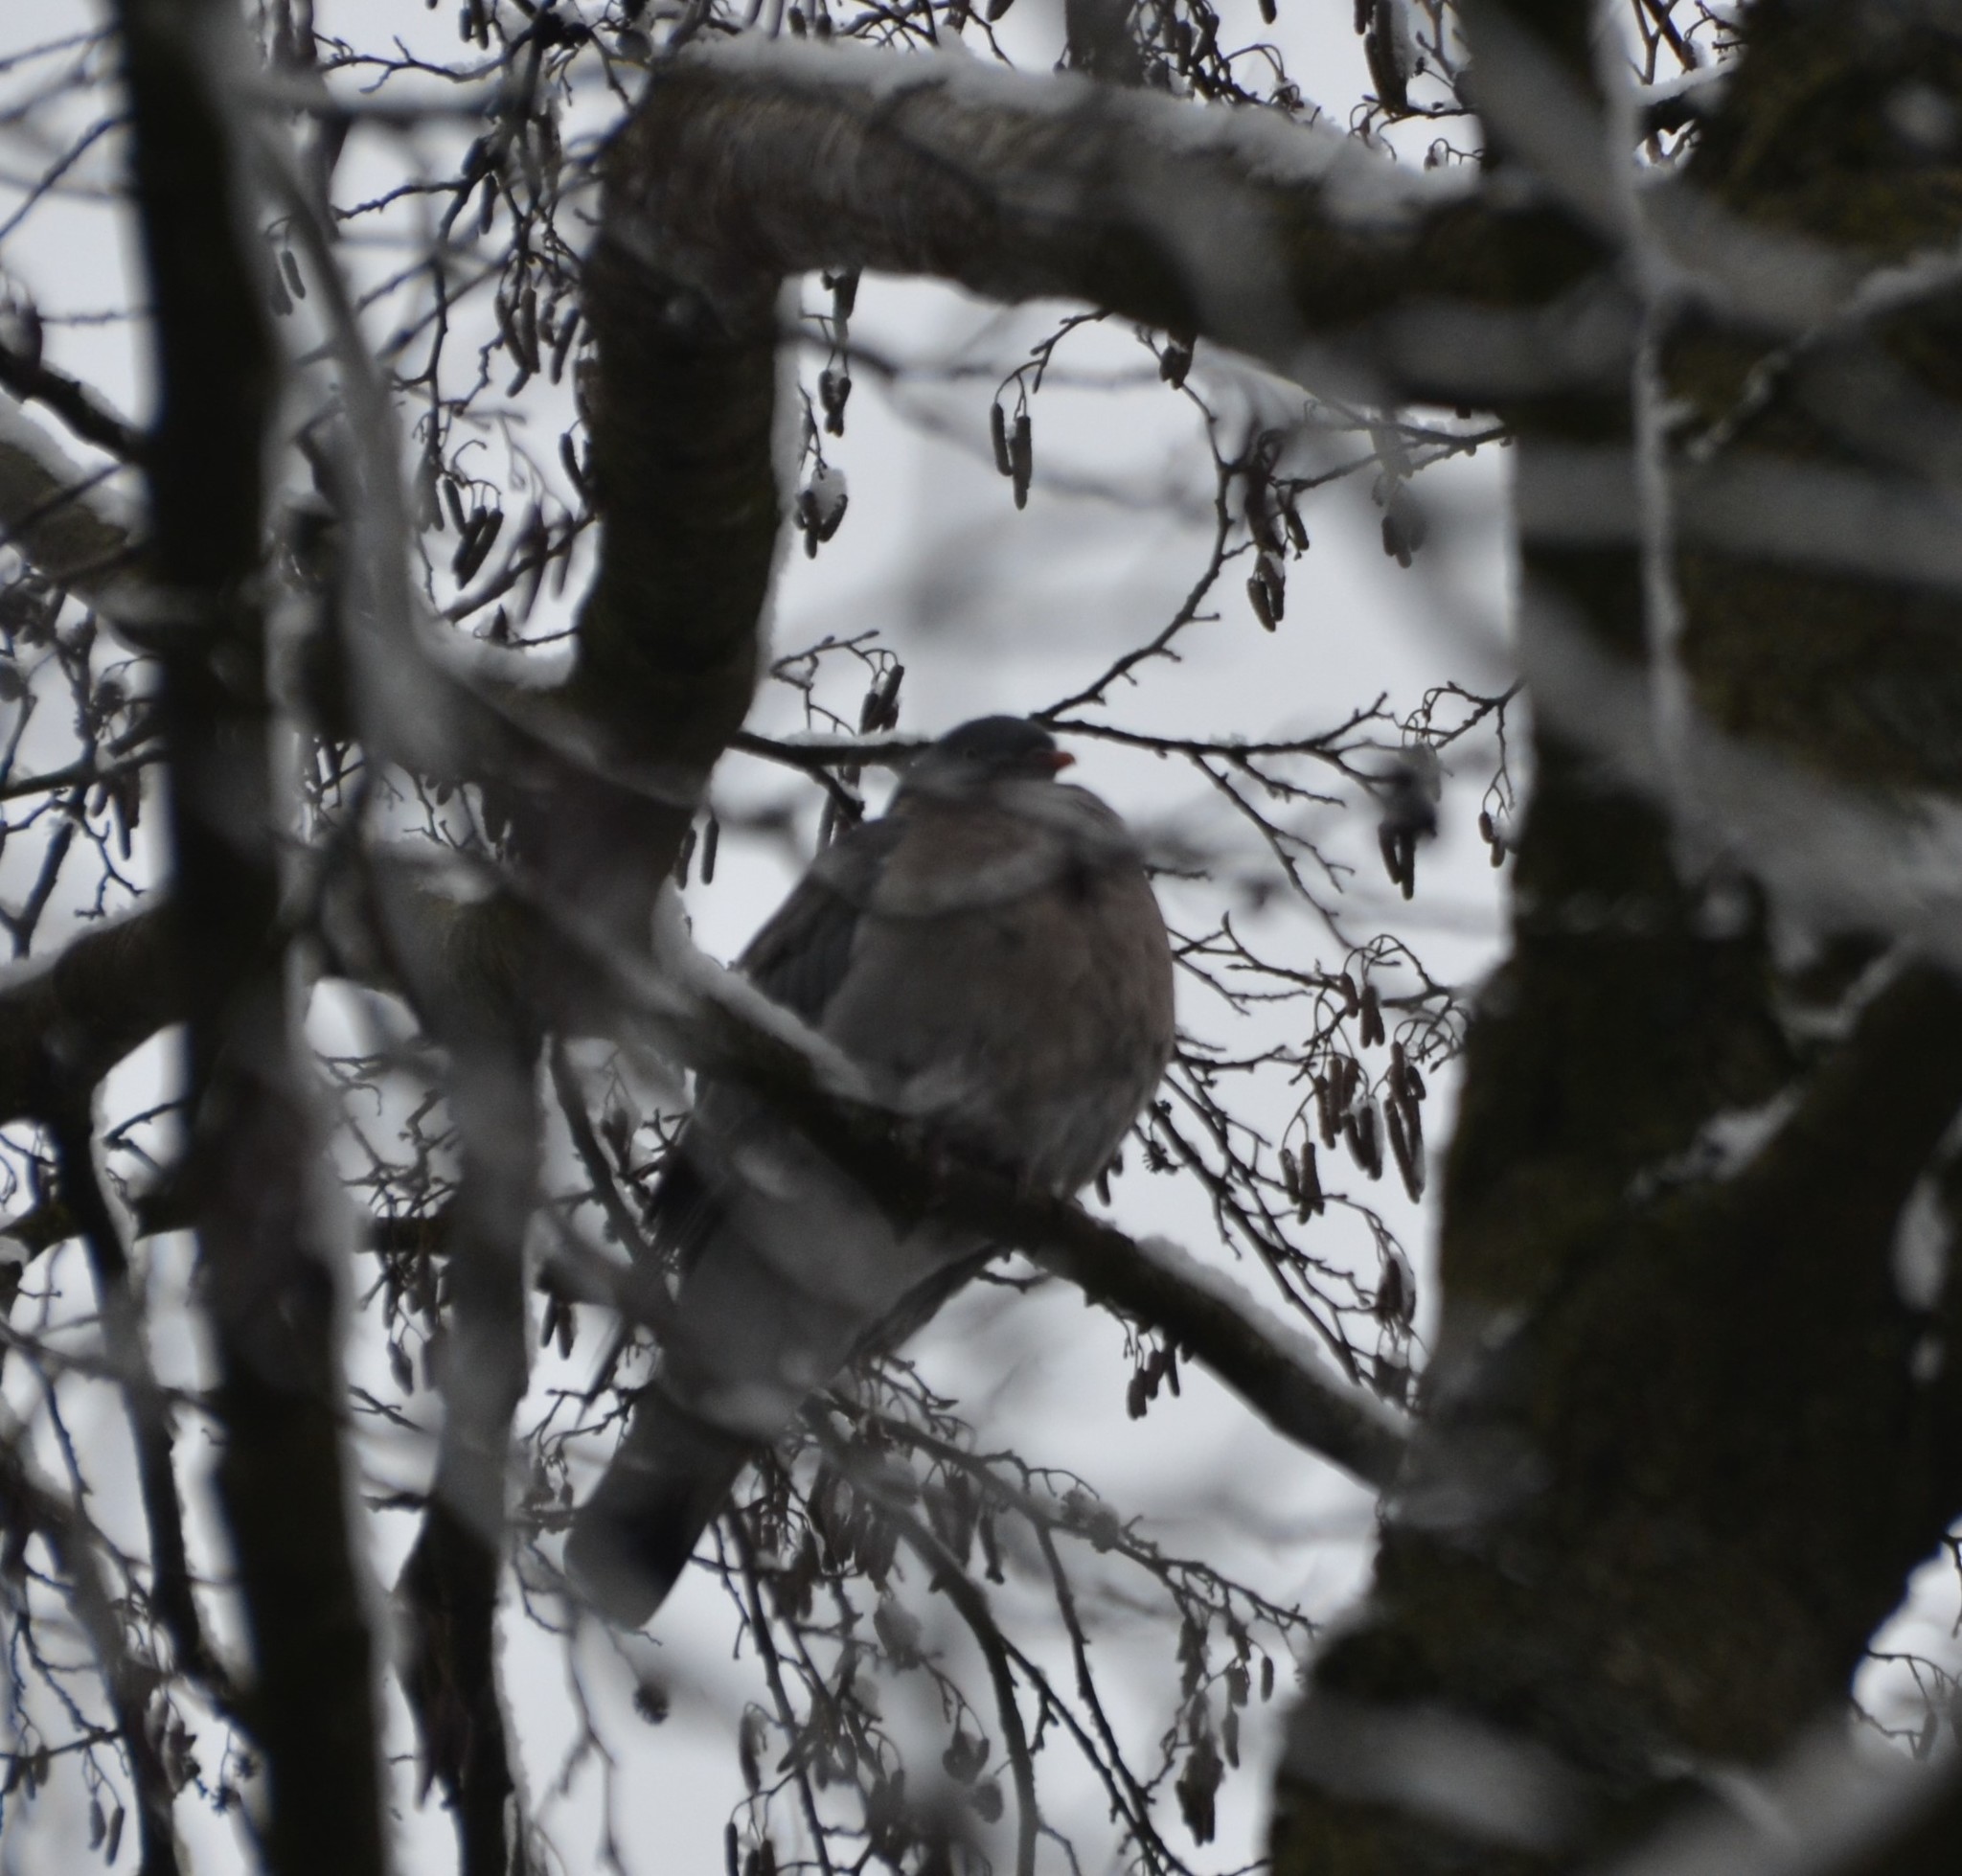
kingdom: Animalia
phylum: Chordata
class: Aves
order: Columbiformes
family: Columbidae
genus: Columba
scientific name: Columba palumbus
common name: Common wood pigeon
